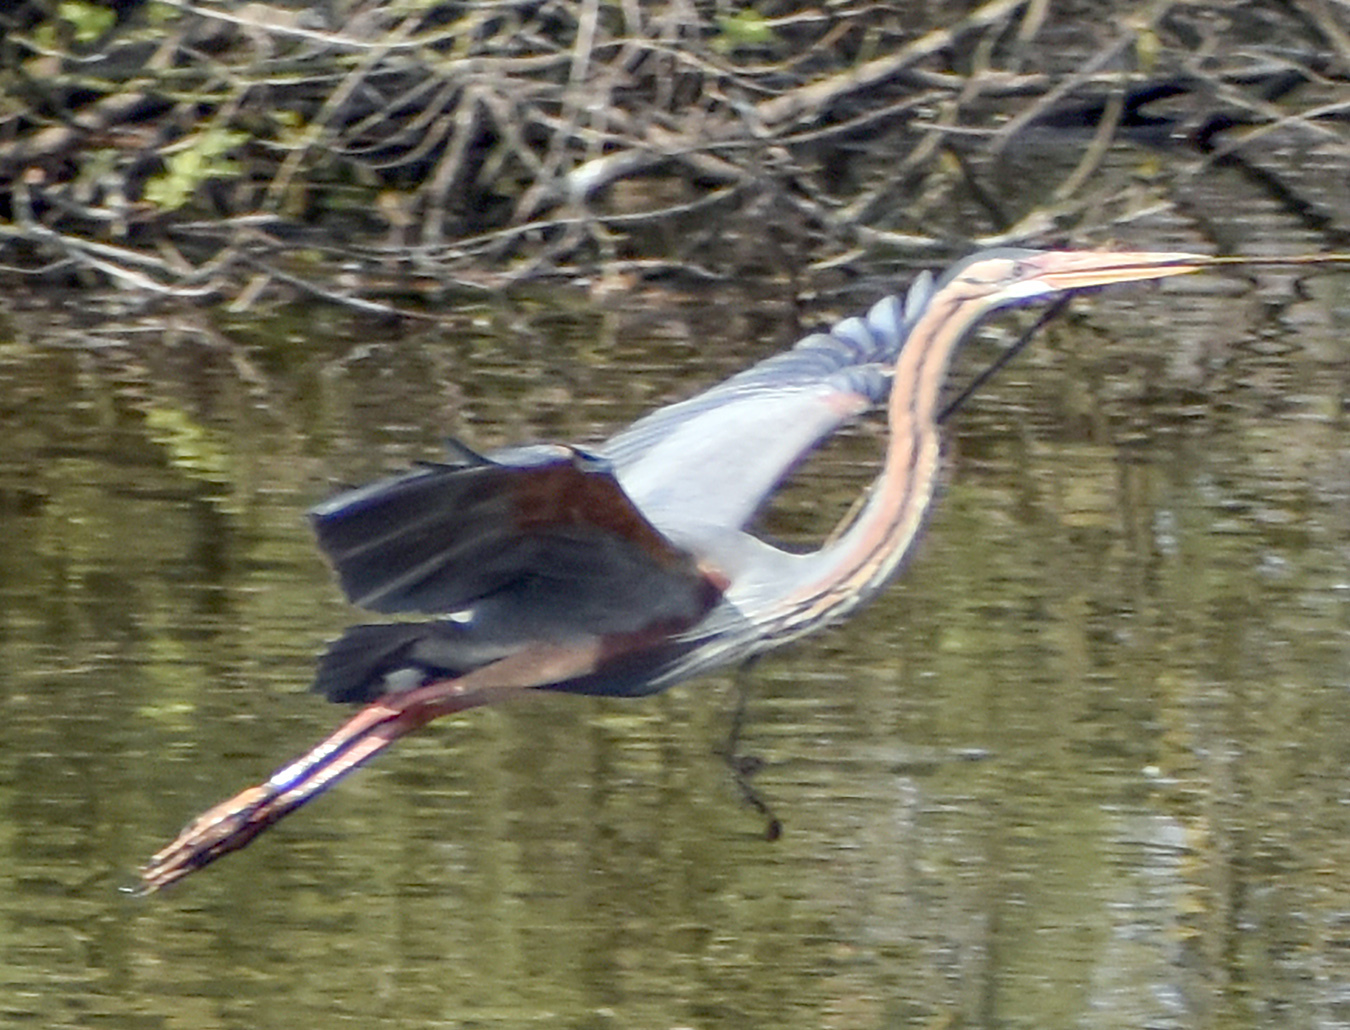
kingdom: Animalia
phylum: Chordata
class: Aves
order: Pelecaniformes
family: Ardeidae
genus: Ardea
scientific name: Ardea purpurea
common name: Purple heron
